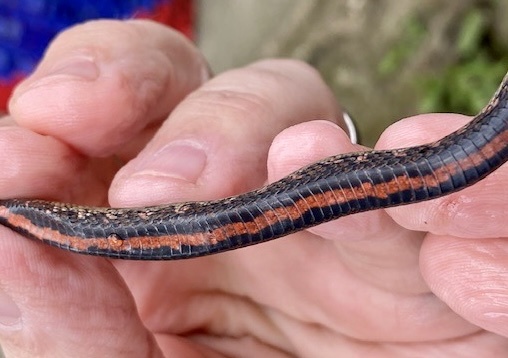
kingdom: Animalia
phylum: Chordata
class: Squamata
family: Colubridae
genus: Helicops
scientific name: Helicops polylepis
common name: Norman's keelback
